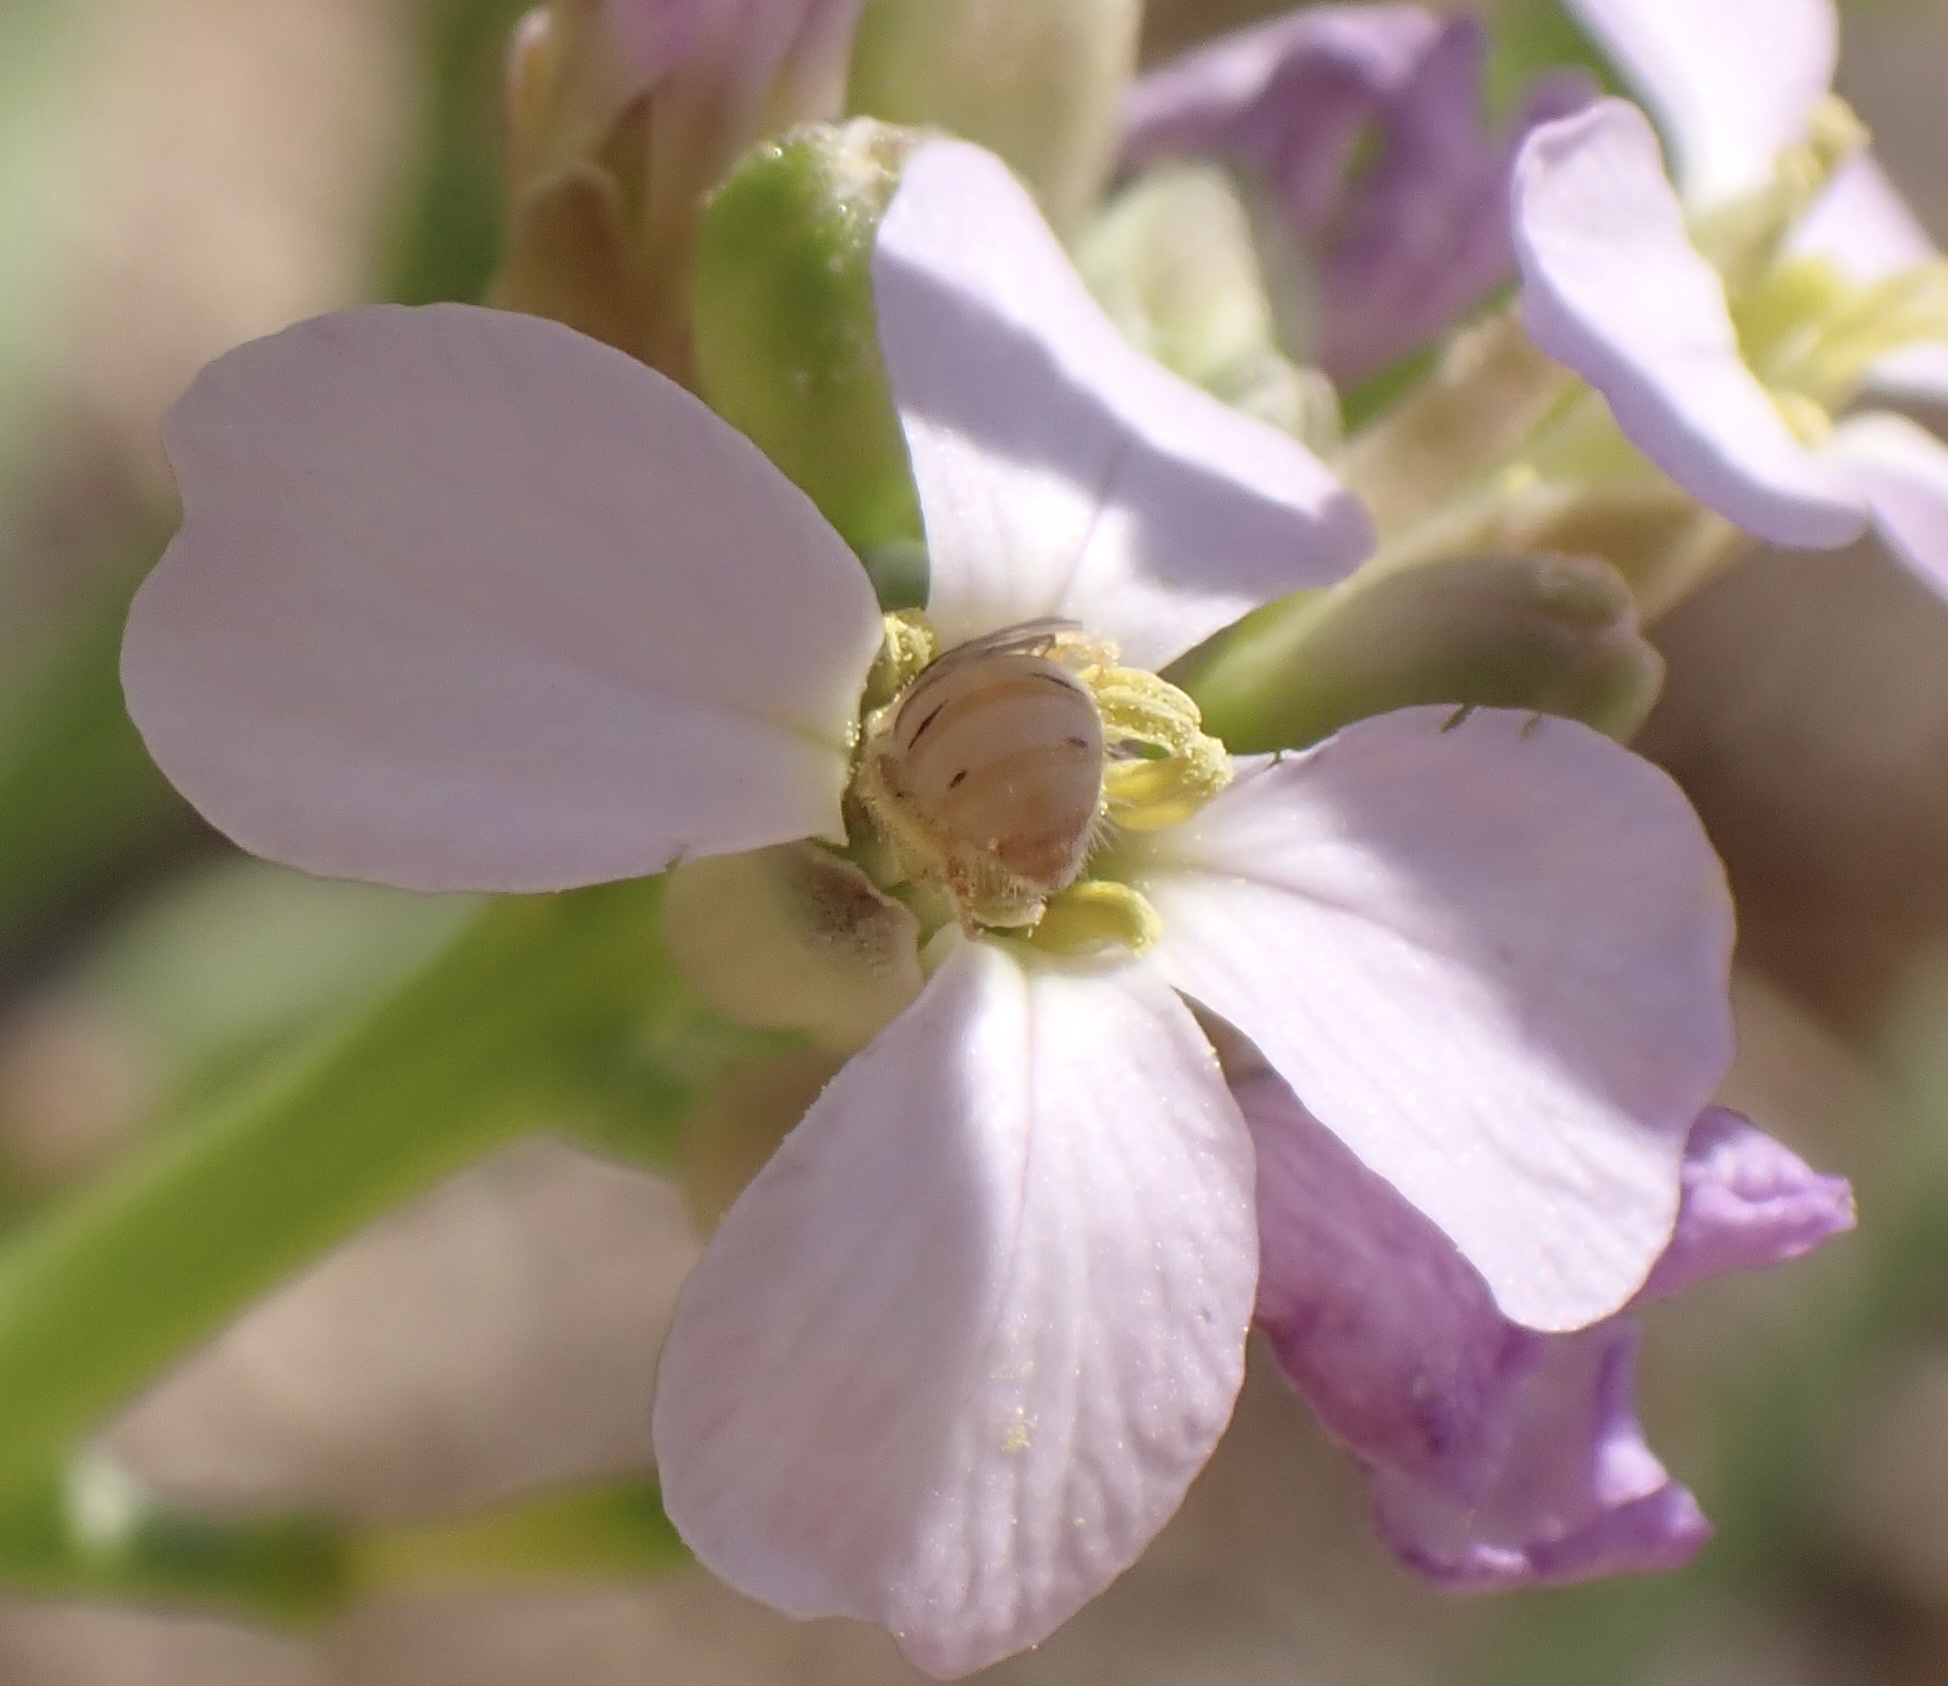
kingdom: Animalia
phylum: Arthropoda
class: Insecta
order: Hymenoptera
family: Halictidae
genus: Nomioides
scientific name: Nomioides minutissimus
